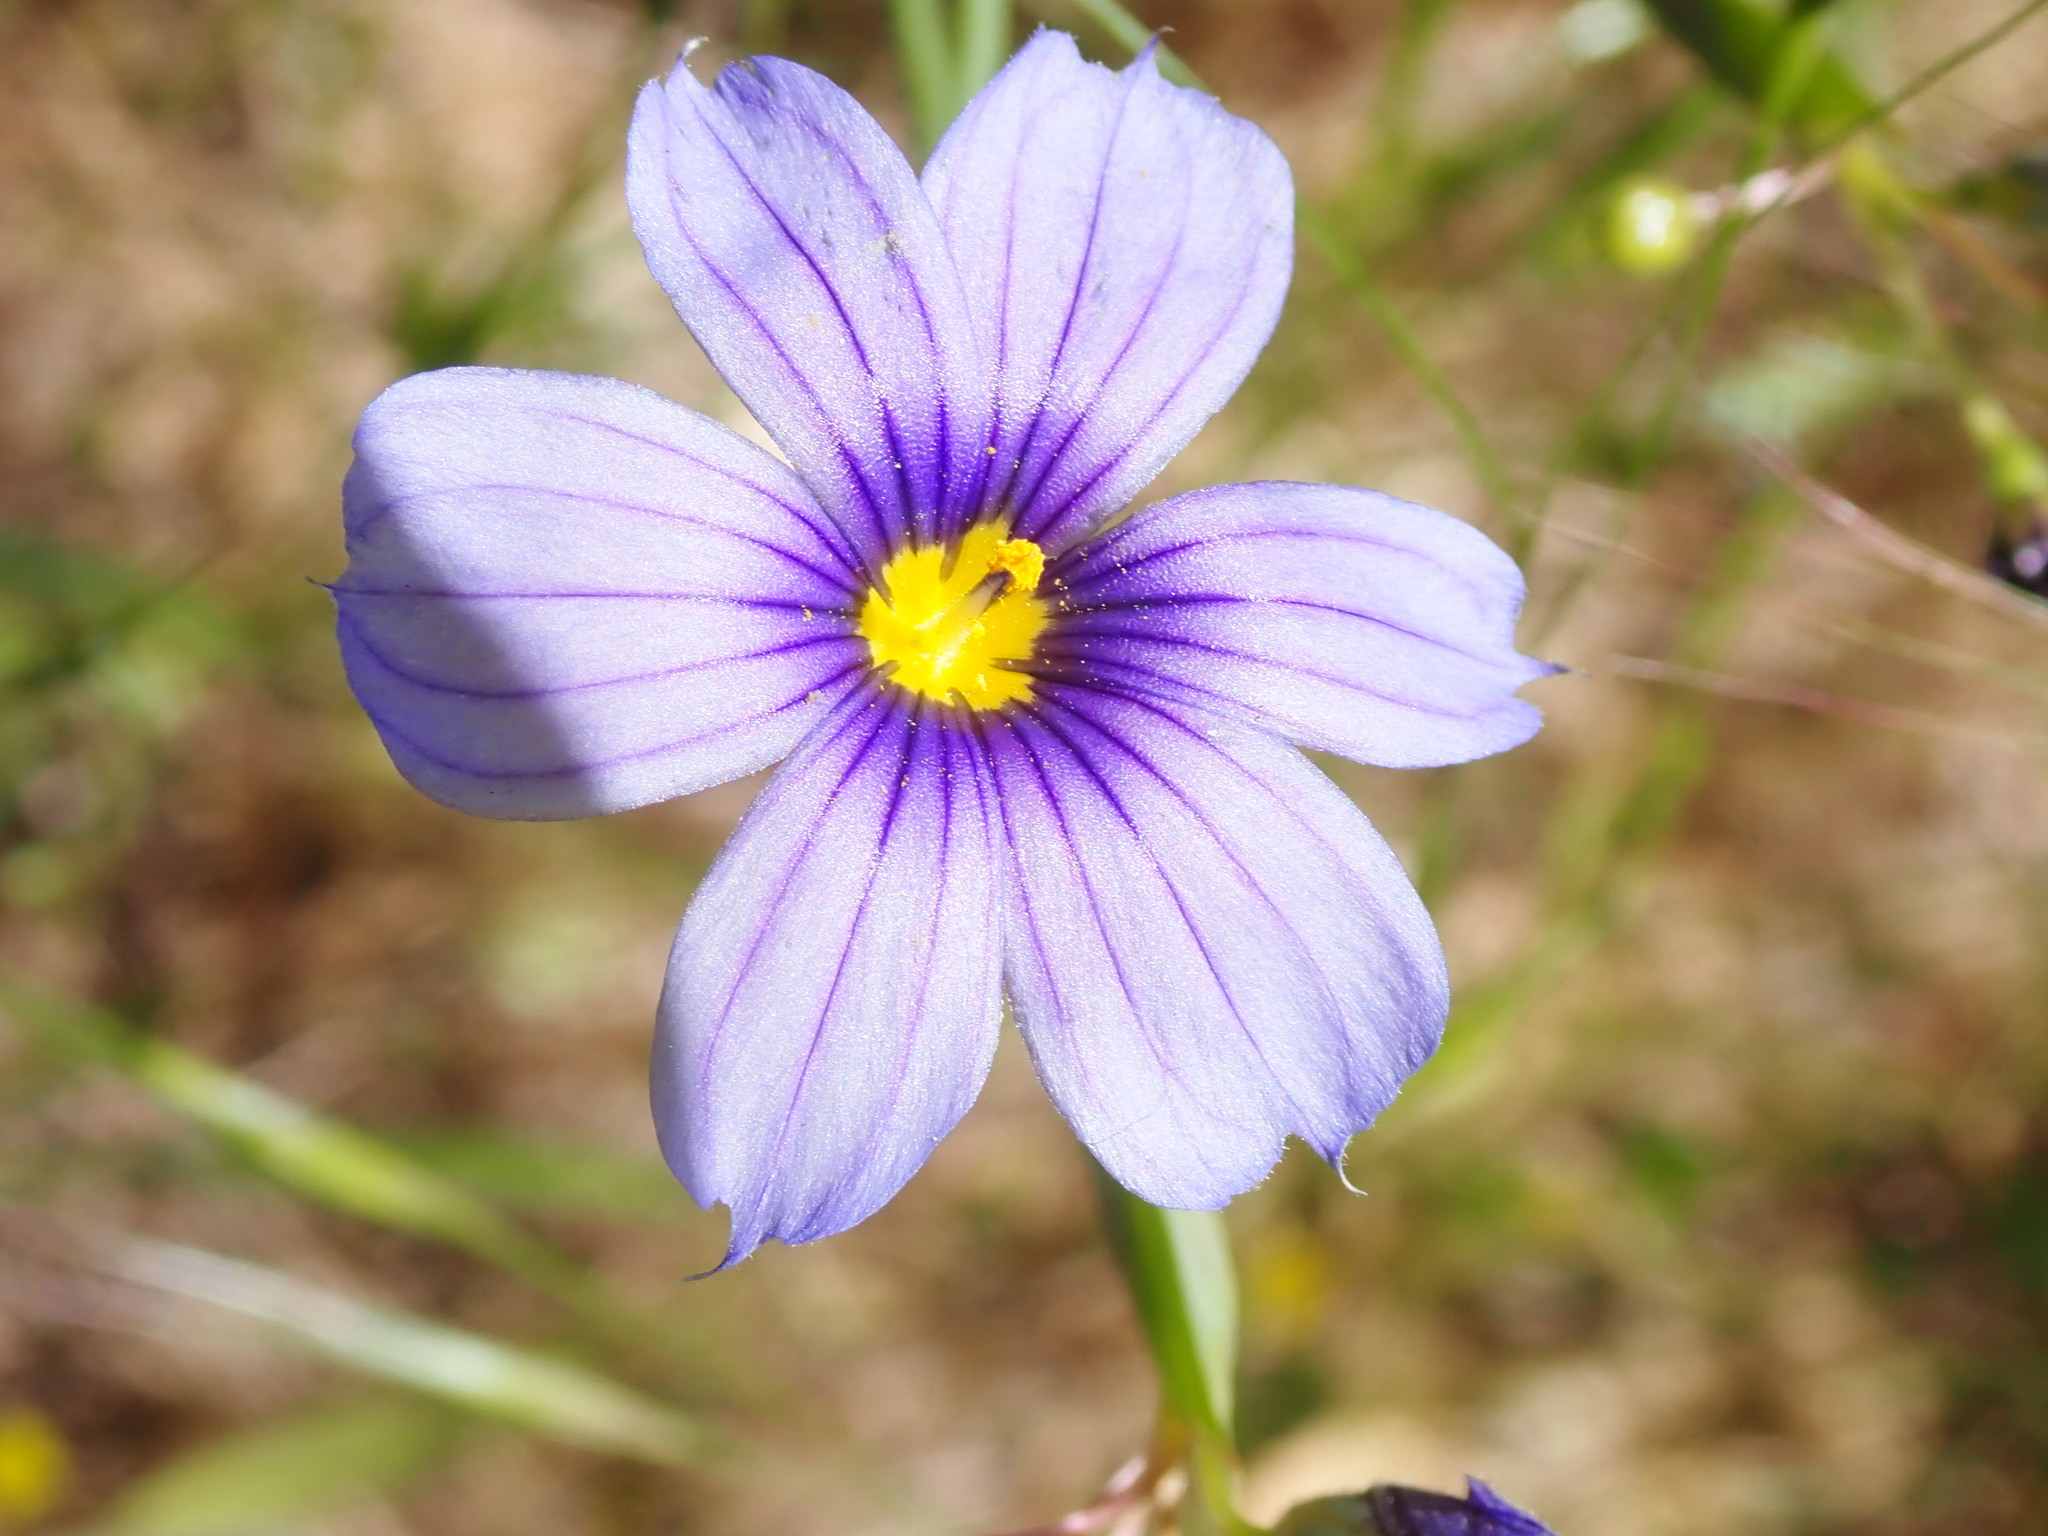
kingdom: Plantae
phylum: Tracheophyta
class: Liliopsida
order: Asparagales
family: Iridaceae
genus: Sisyrinchium
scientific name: Sisyrinchium bellum
